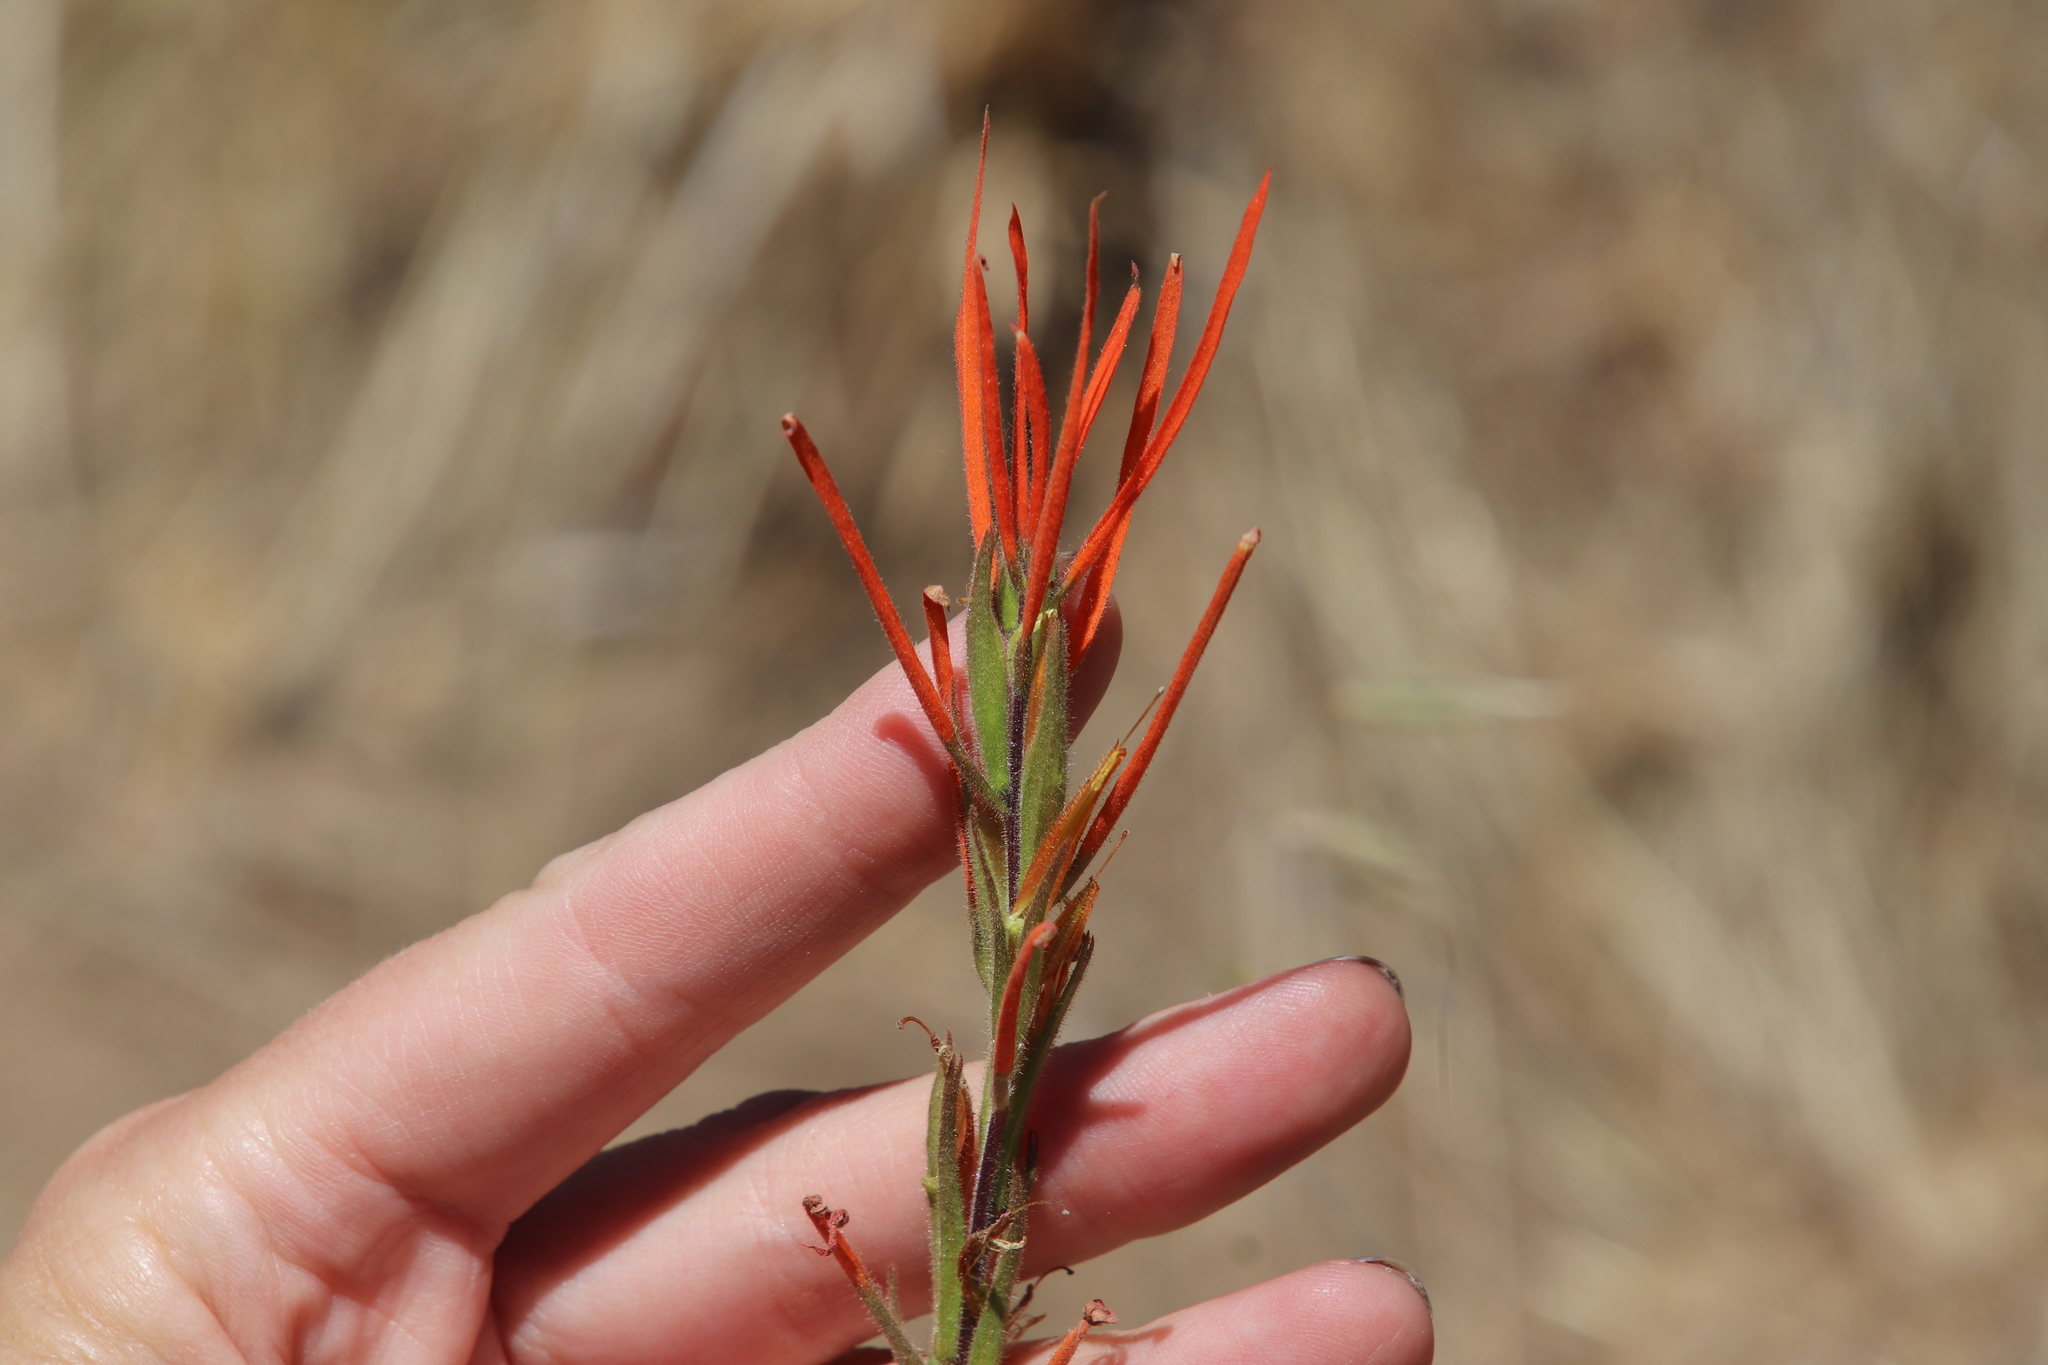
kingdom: Plantae
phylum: Tracheophyta
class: Magnoliopsida
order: Lamiales
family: Orobanchaceae
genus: Castilleja
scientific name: Castilleja minor
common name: Seep paintbrush
